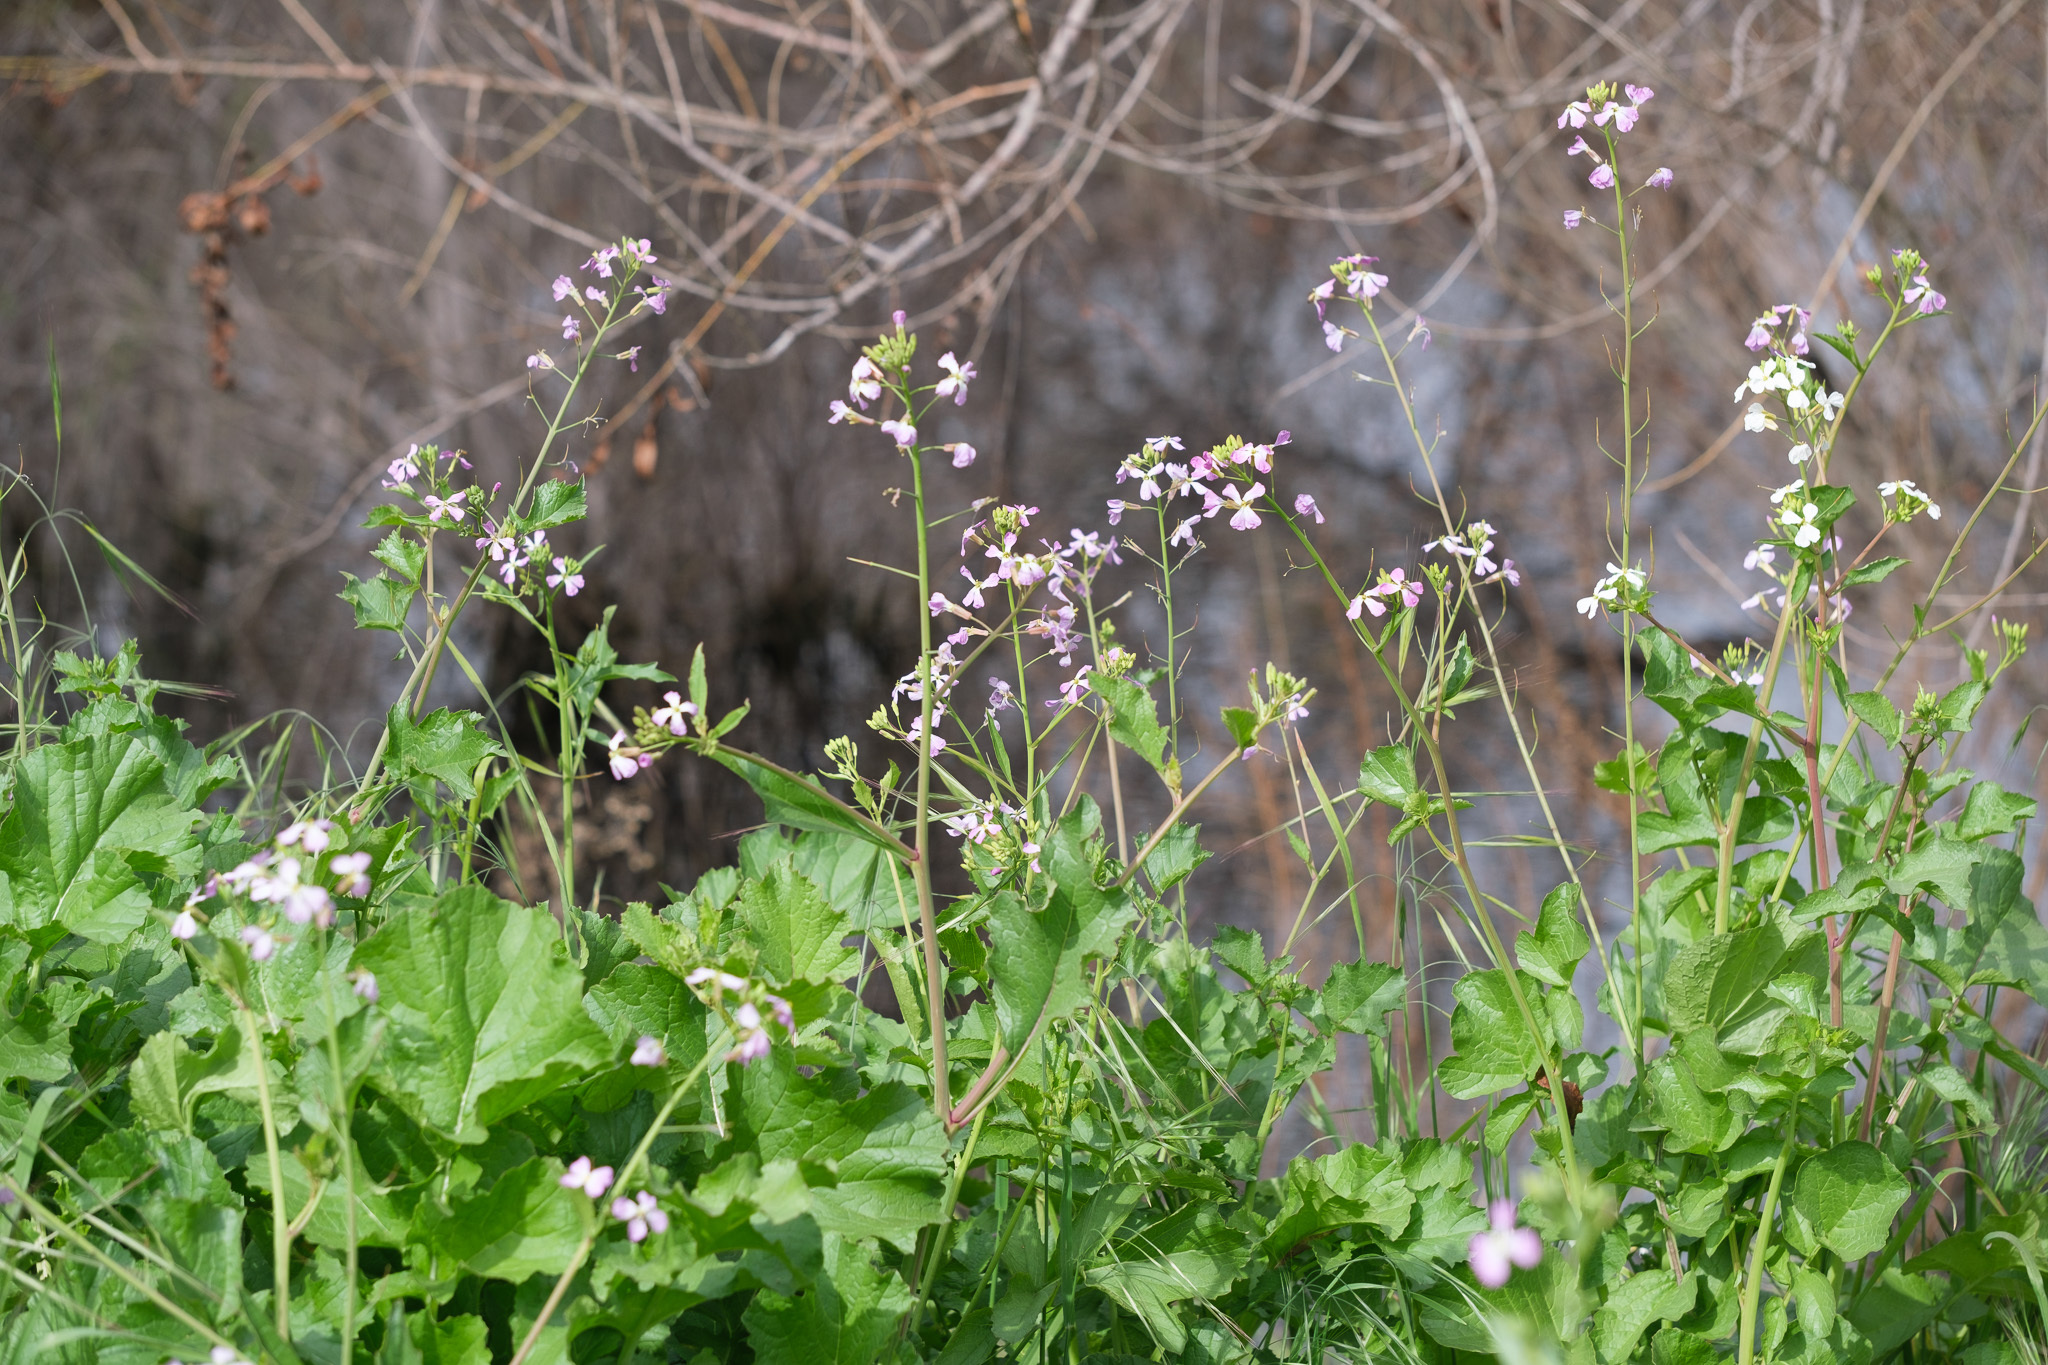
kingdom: Plantae
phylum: Tracheophyta
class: Magnoliopsida
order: Brassicales
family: Brassicaceae
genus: Raphanus
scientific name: Raphanus sativus
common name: Cultivated radish
